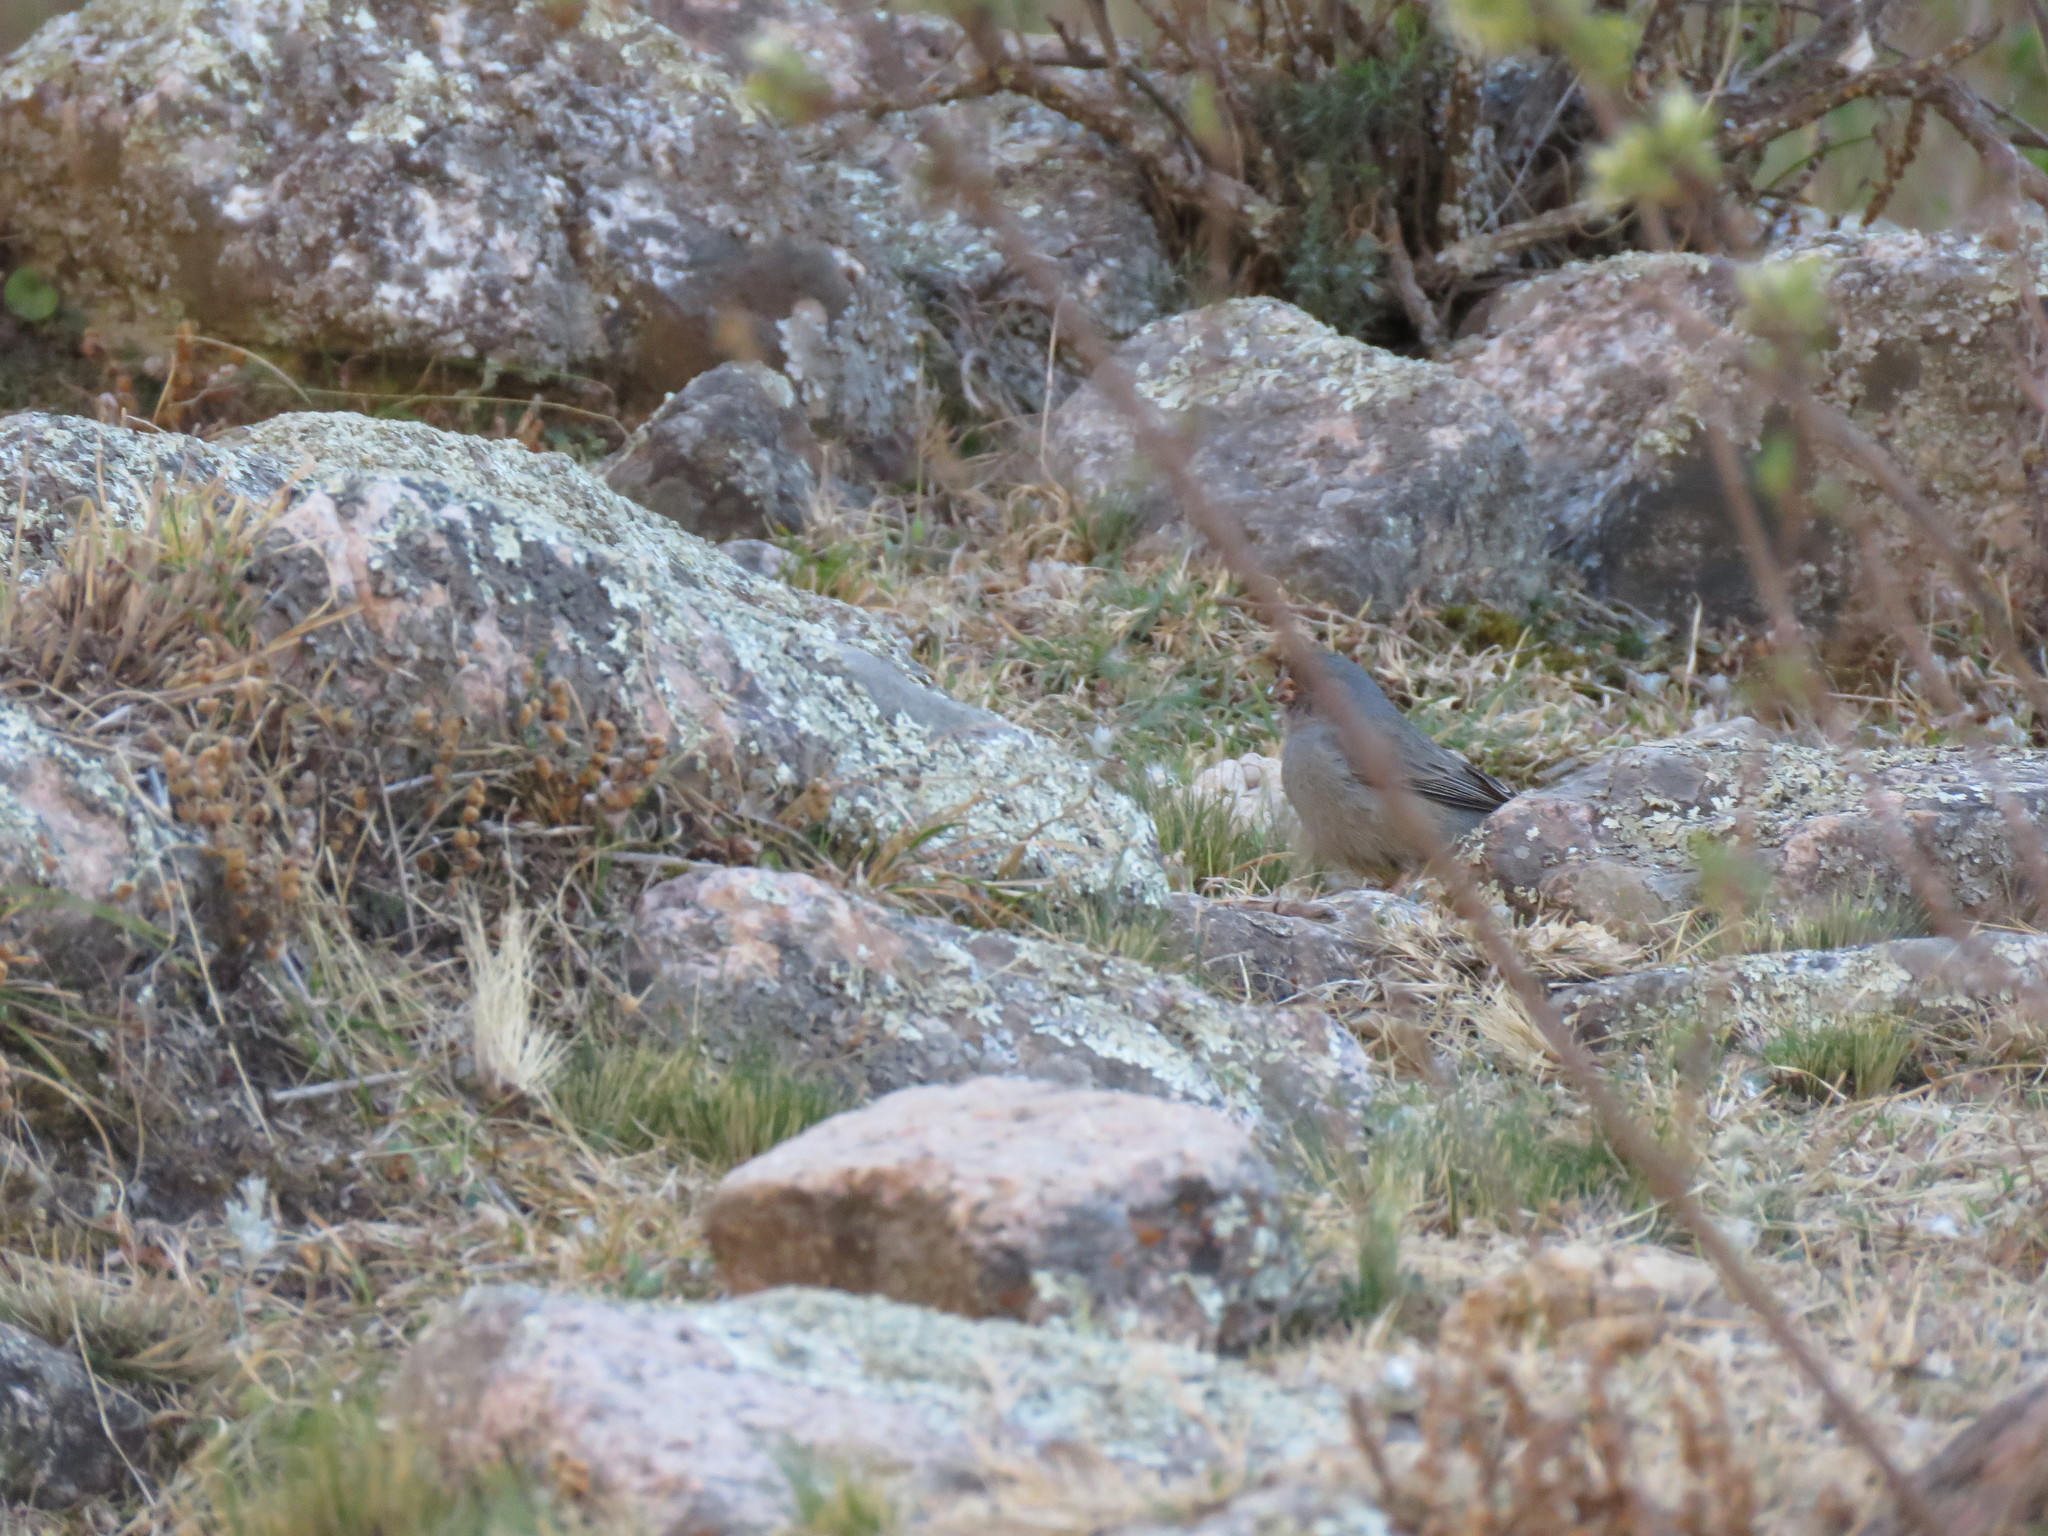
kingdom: Animalia
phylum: Chordata
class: Aves
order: Passeriformes
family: Thraupidae
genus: Catamenia
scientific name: Catamenia inornata
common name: Plain-colored seedeater
